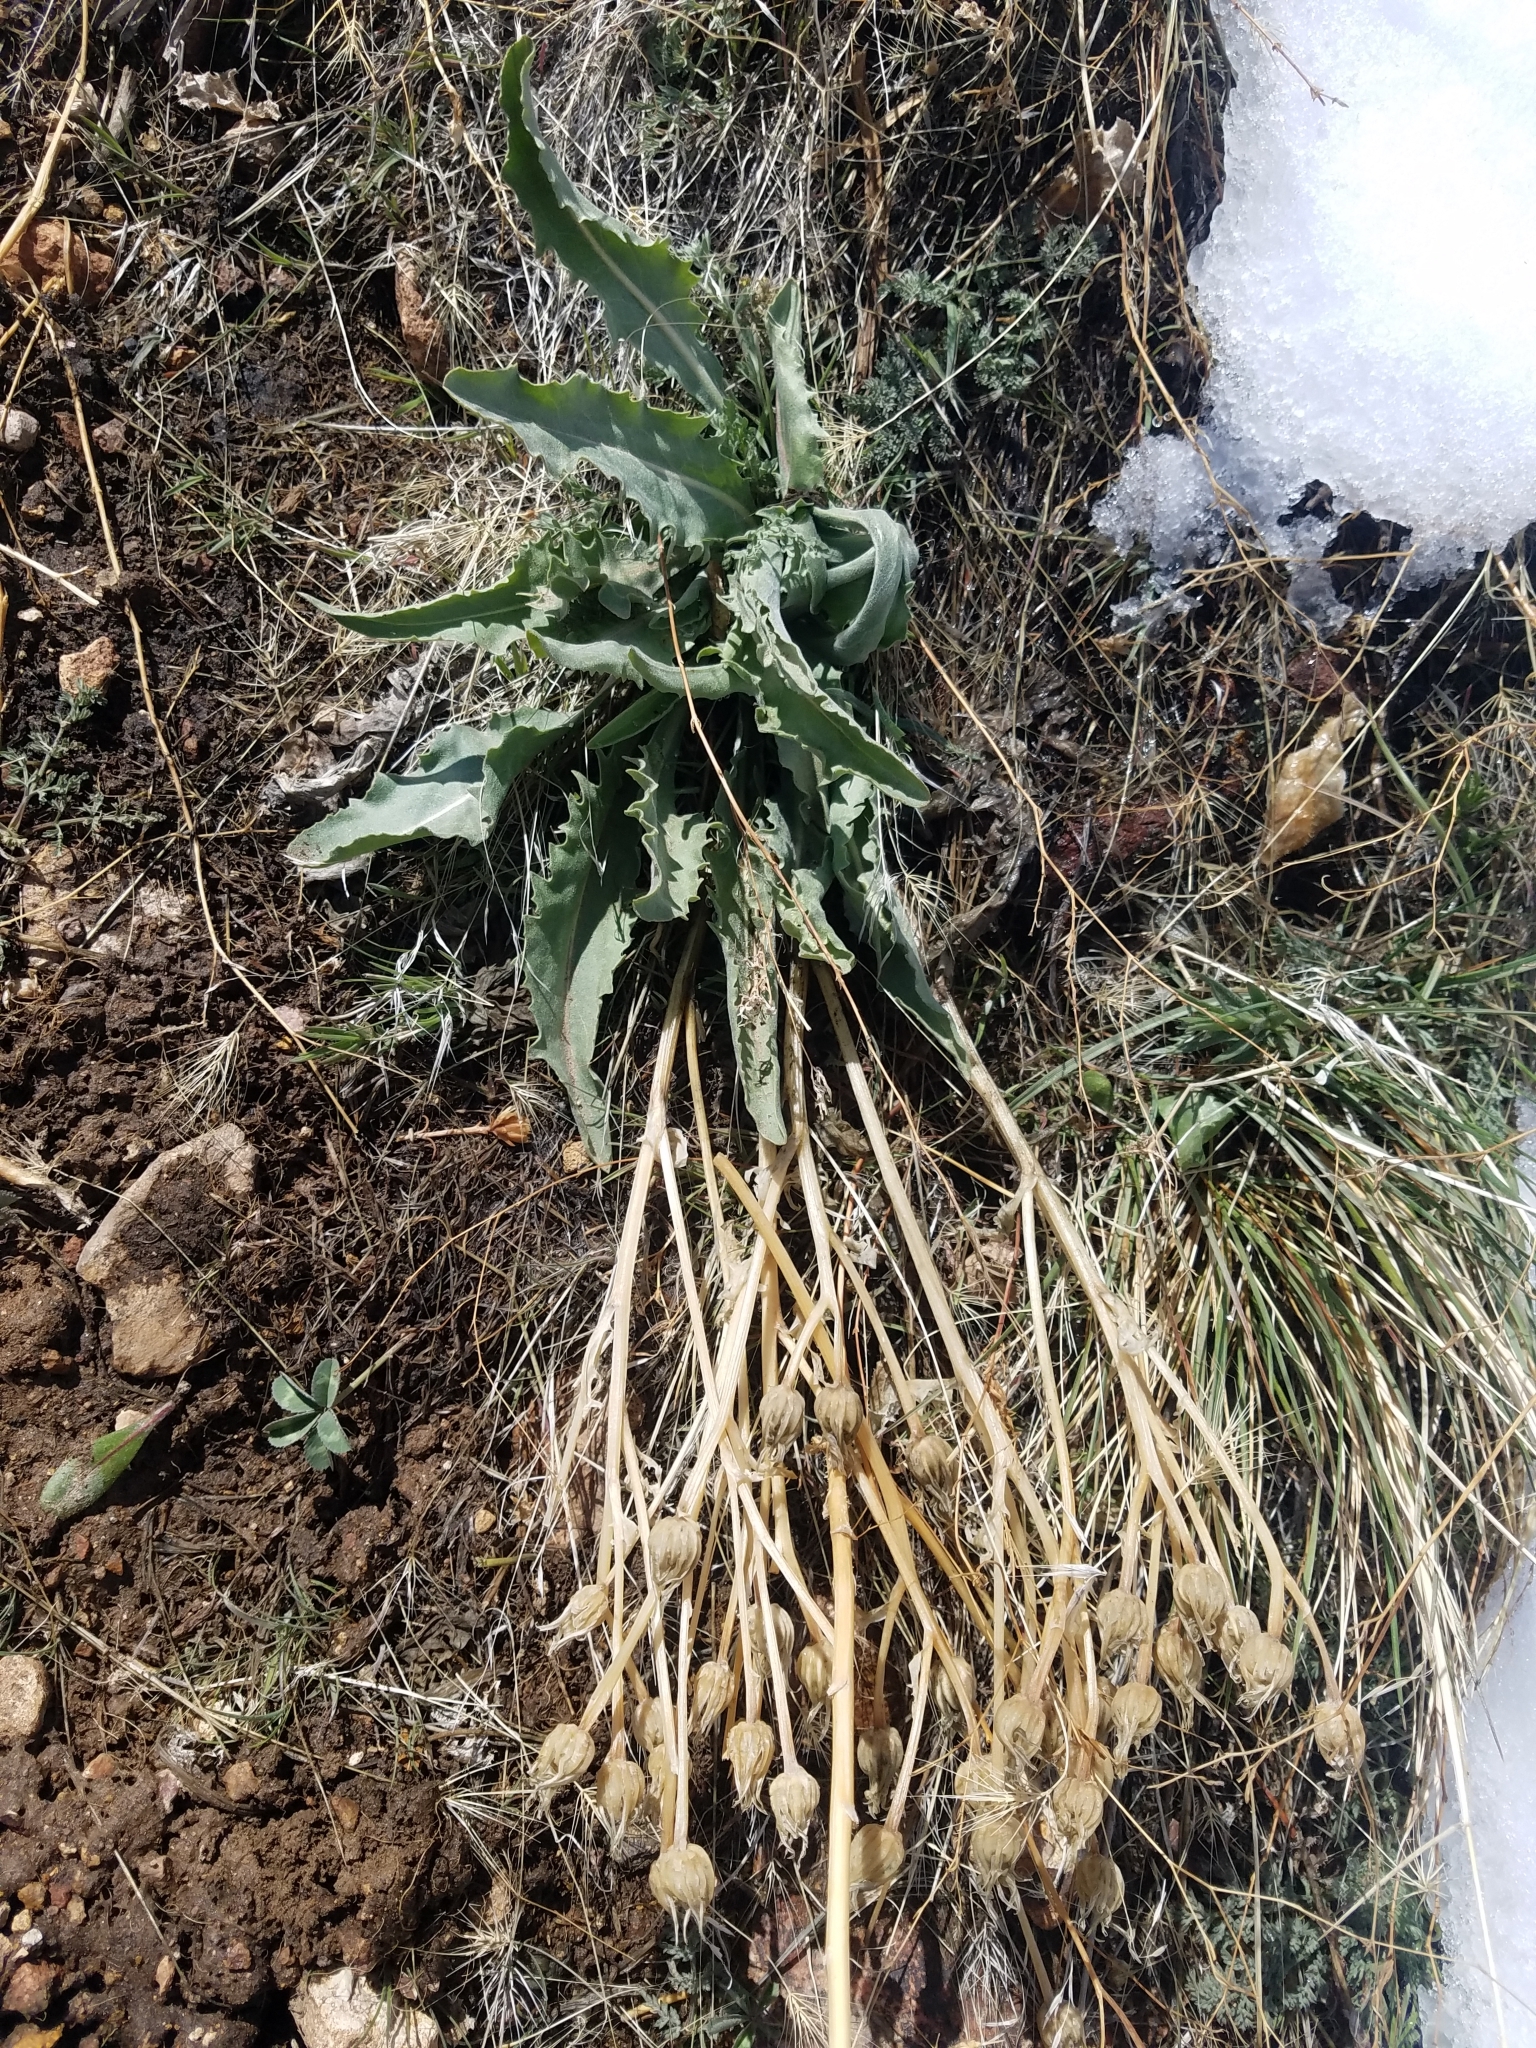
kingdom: Plantae
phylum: Tracheophyta
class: Magnoliopsida
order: Asterales
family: Asteraceae
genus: Crepis
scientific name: Crepis occidentalis
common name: Gray hawk's-beard
